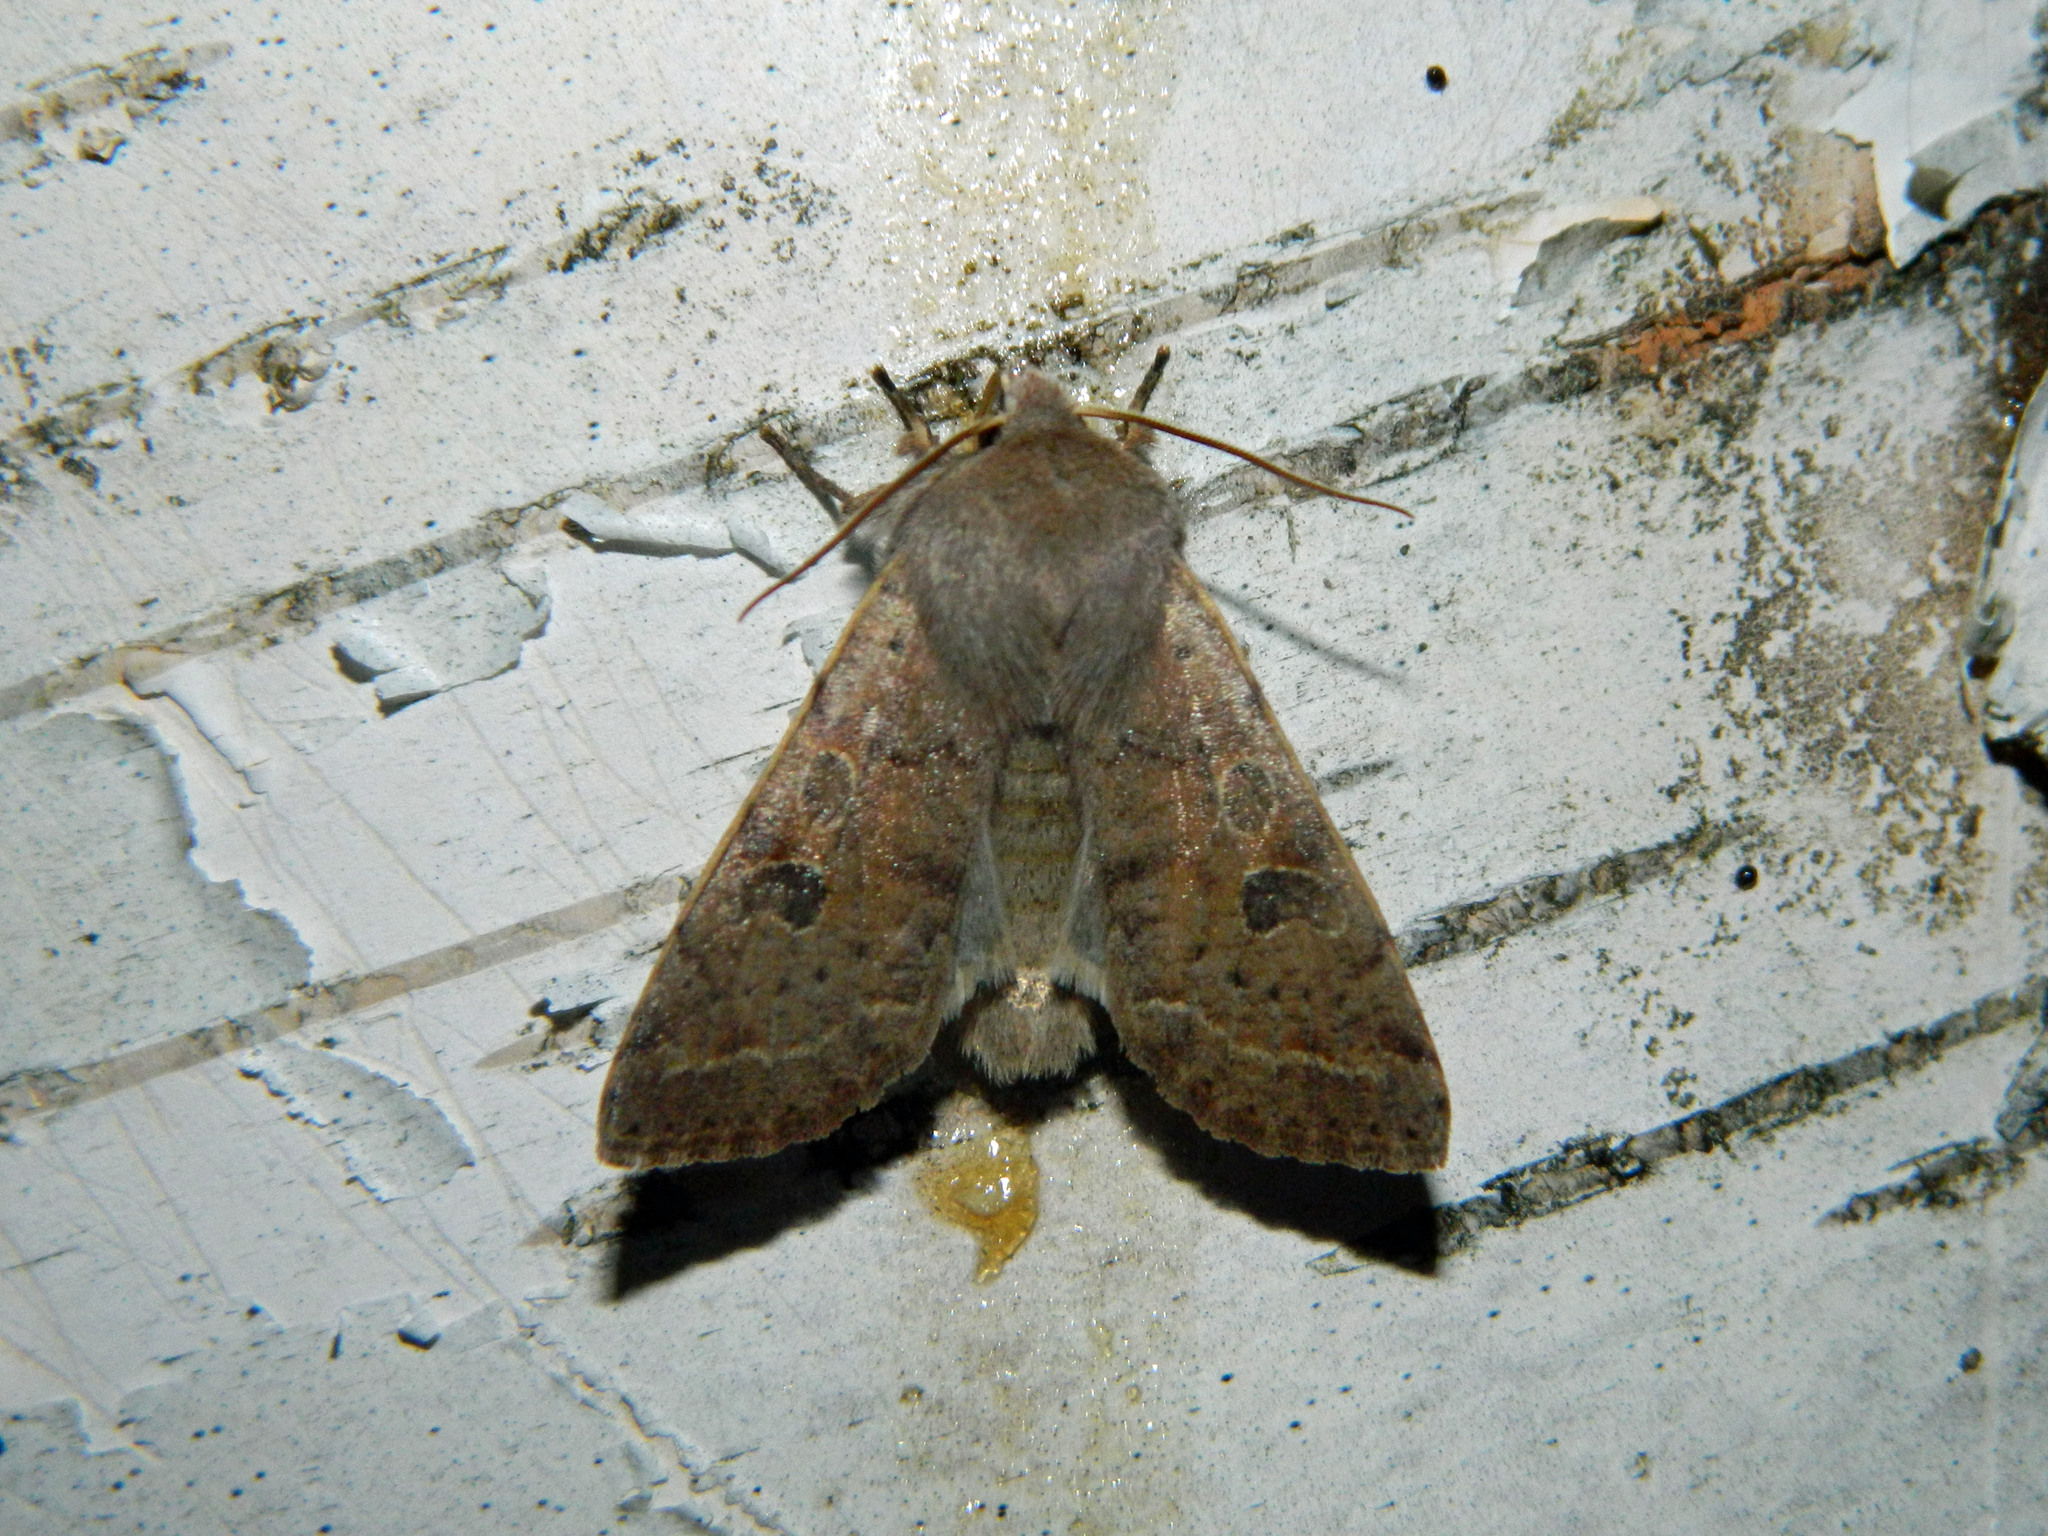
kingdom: Animalia
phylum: Arthropoda
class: Insecta
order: Lepidoptera
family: Noctuidae
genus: Orthosia
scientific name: Orthosia hibisci
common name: Green fruitworm
